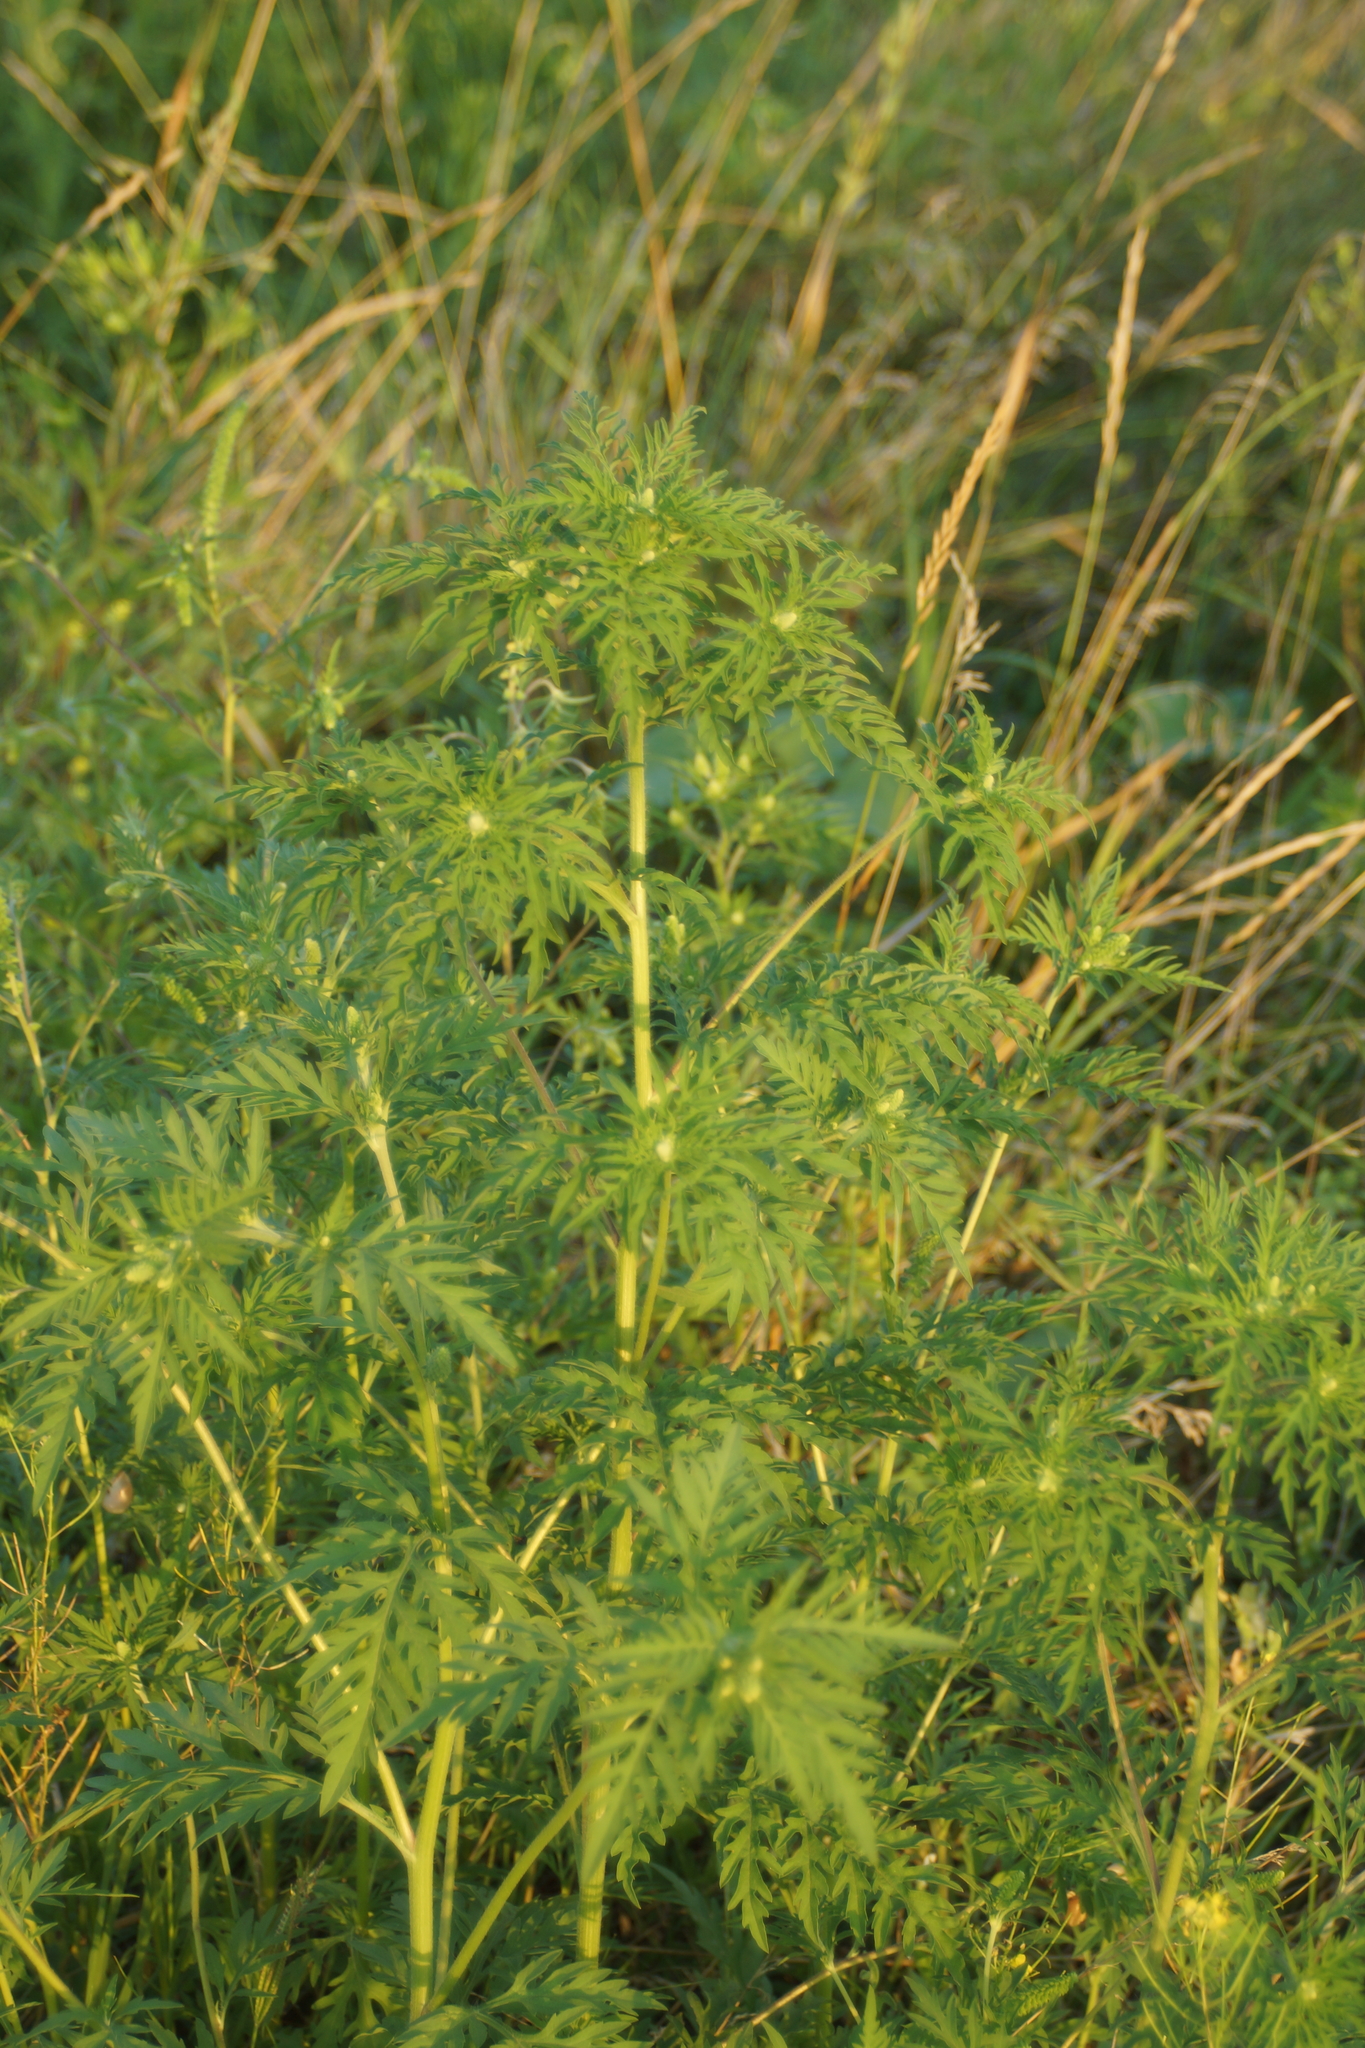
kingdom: Plantae
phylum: Tracheophyta
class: Magnoliopsida
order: Asterales
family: Asteraceae
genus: Ambrosia
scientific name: Ambrosia artemisiifolia
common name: Annual ragweed
